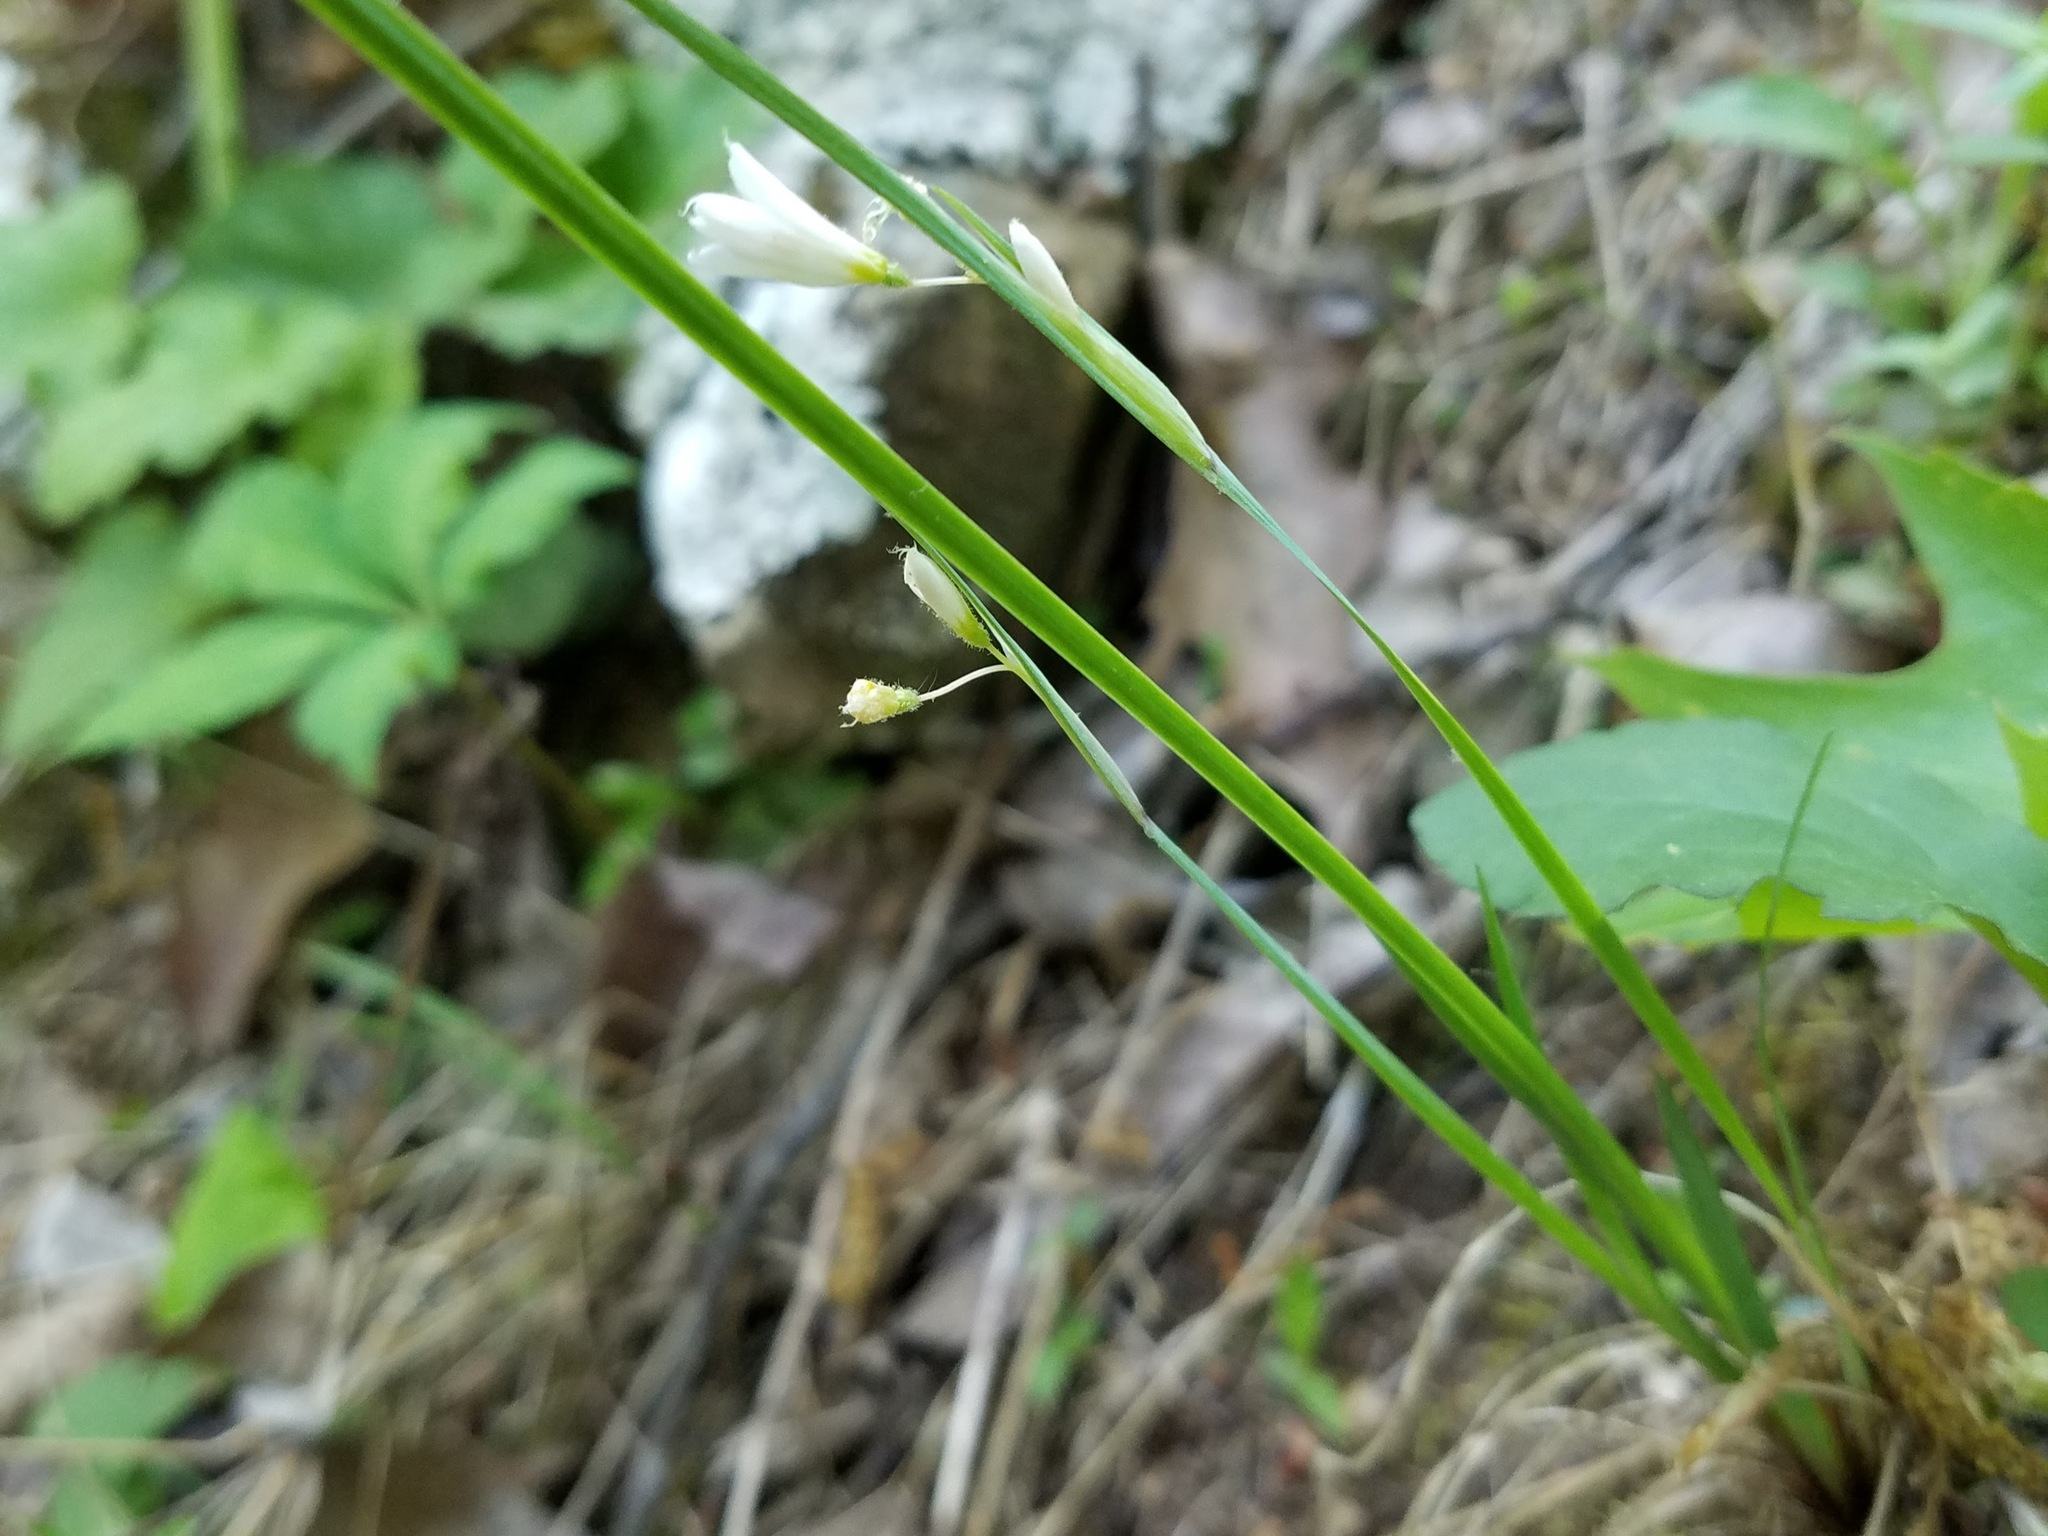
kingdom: Plantae
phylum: Tracheophyta
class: Liliopsida
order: Asparagales
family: Iridaceae
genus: Sisyrinchium
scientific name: Sisyrinchium albidum
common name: Pale blue-eyed-grass
